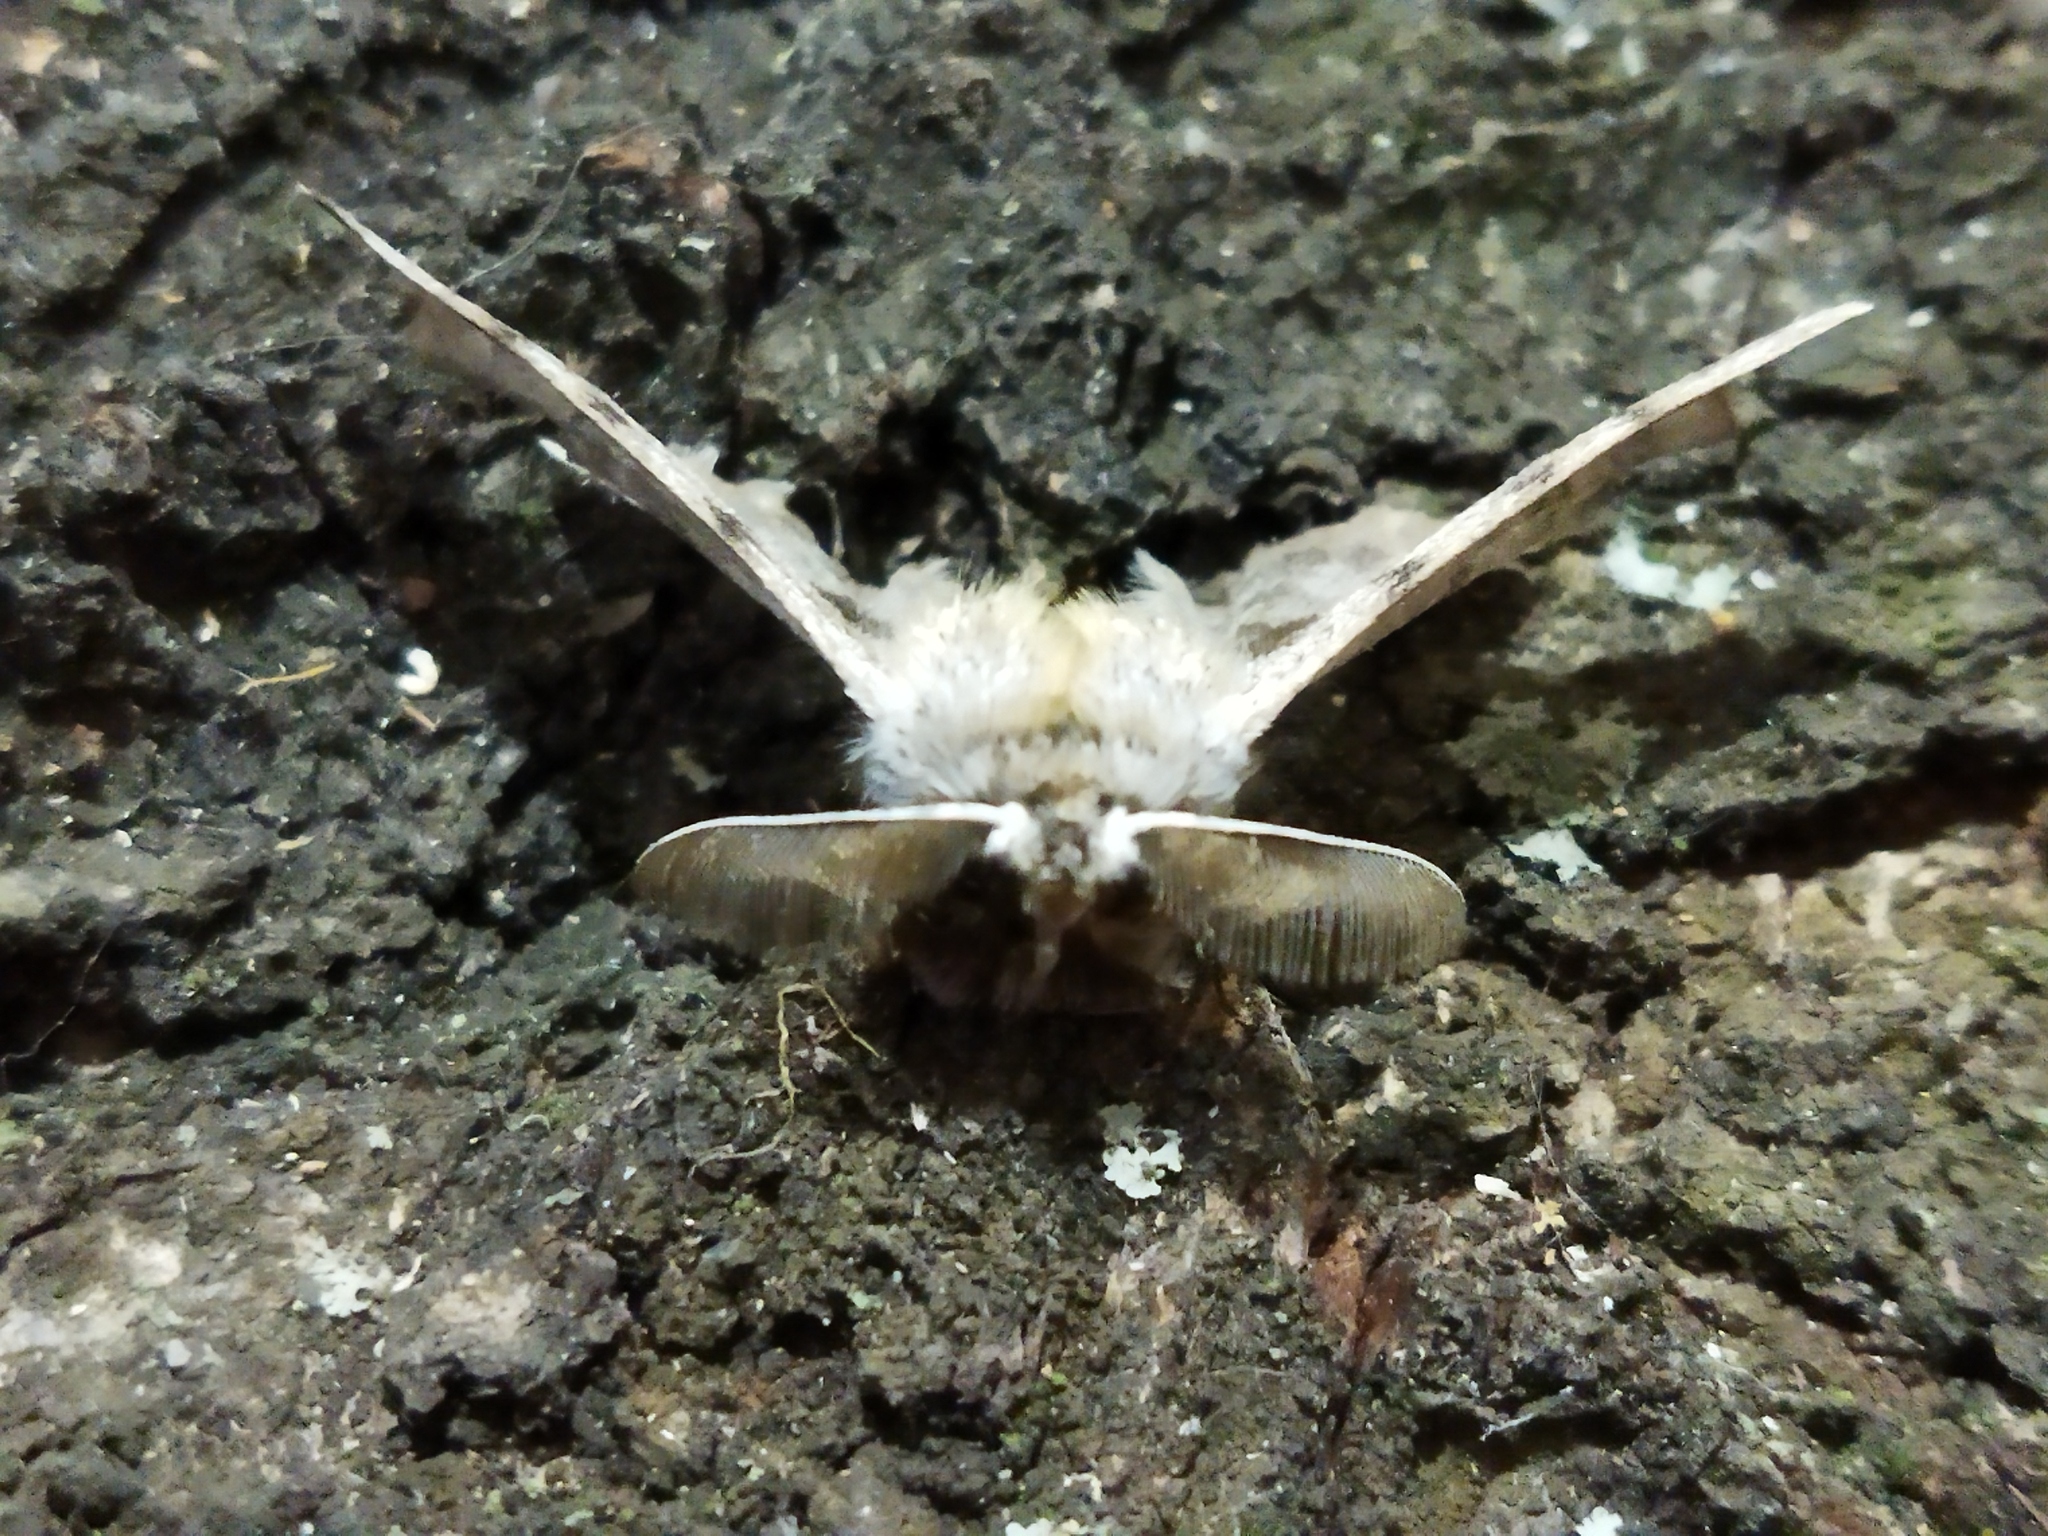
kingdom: Animalia
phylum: Arthropoda
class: Insecta
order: Lepidoptera
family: Geometridae
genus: Apochima
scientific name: Apochima flabellaria
